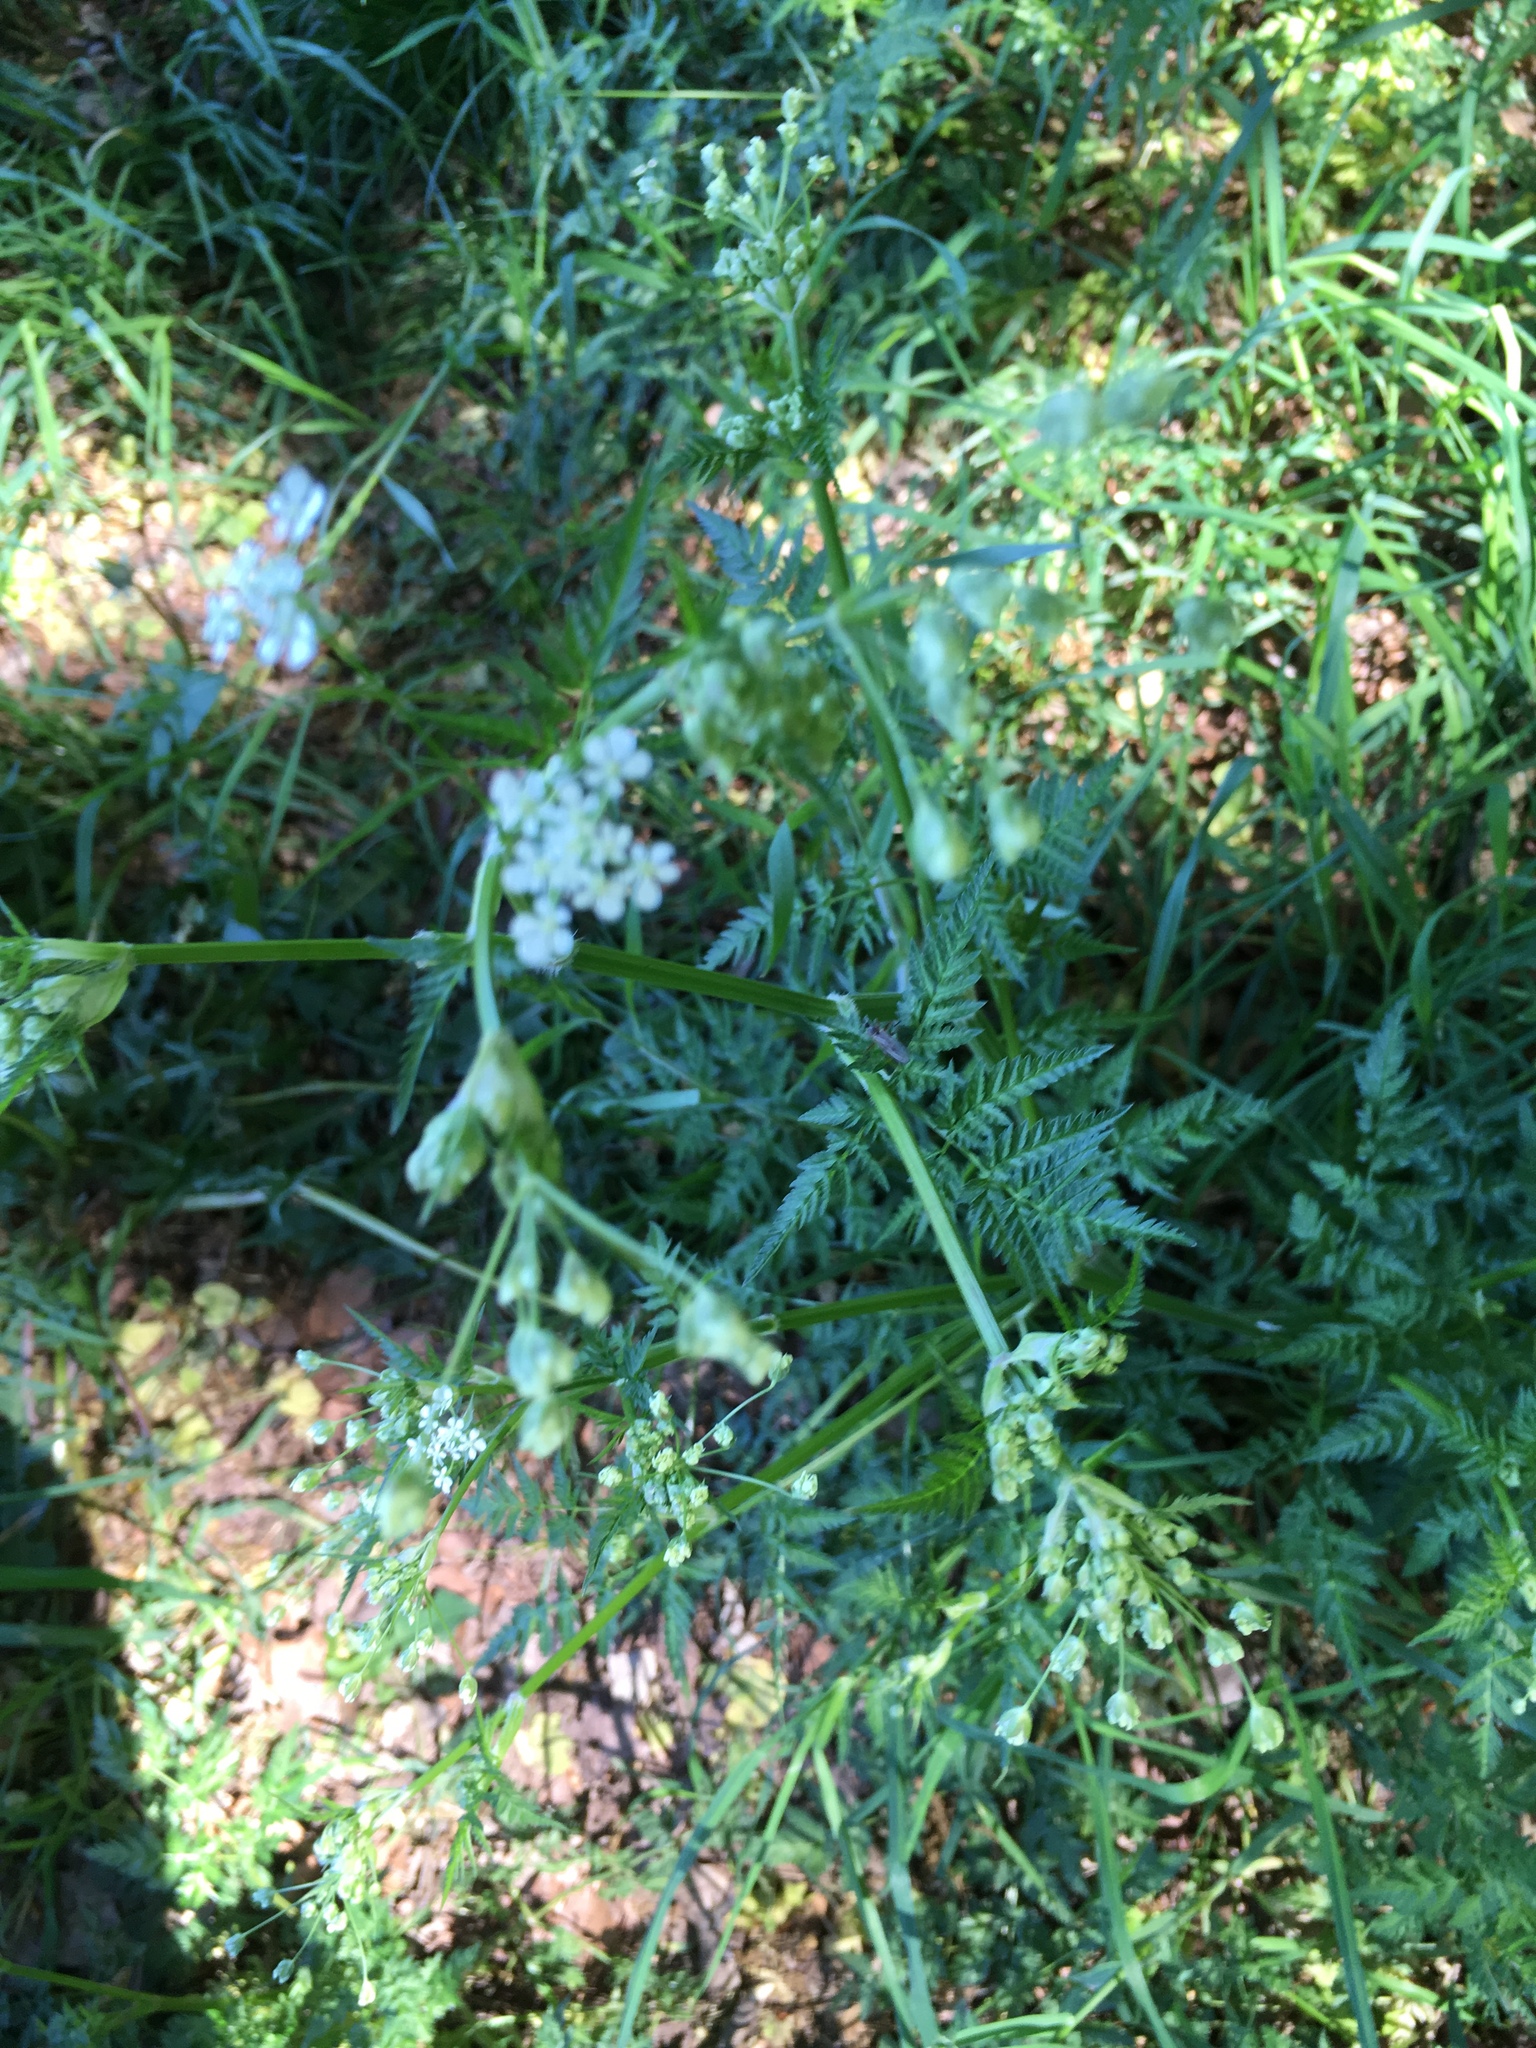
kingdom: Plantae
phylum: Tracheophyta
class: Magnoliopsida
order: Apiales
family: Apiaceae
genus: Anthriscus
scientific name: Anthriscus sylvestris
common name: Cow parsley
